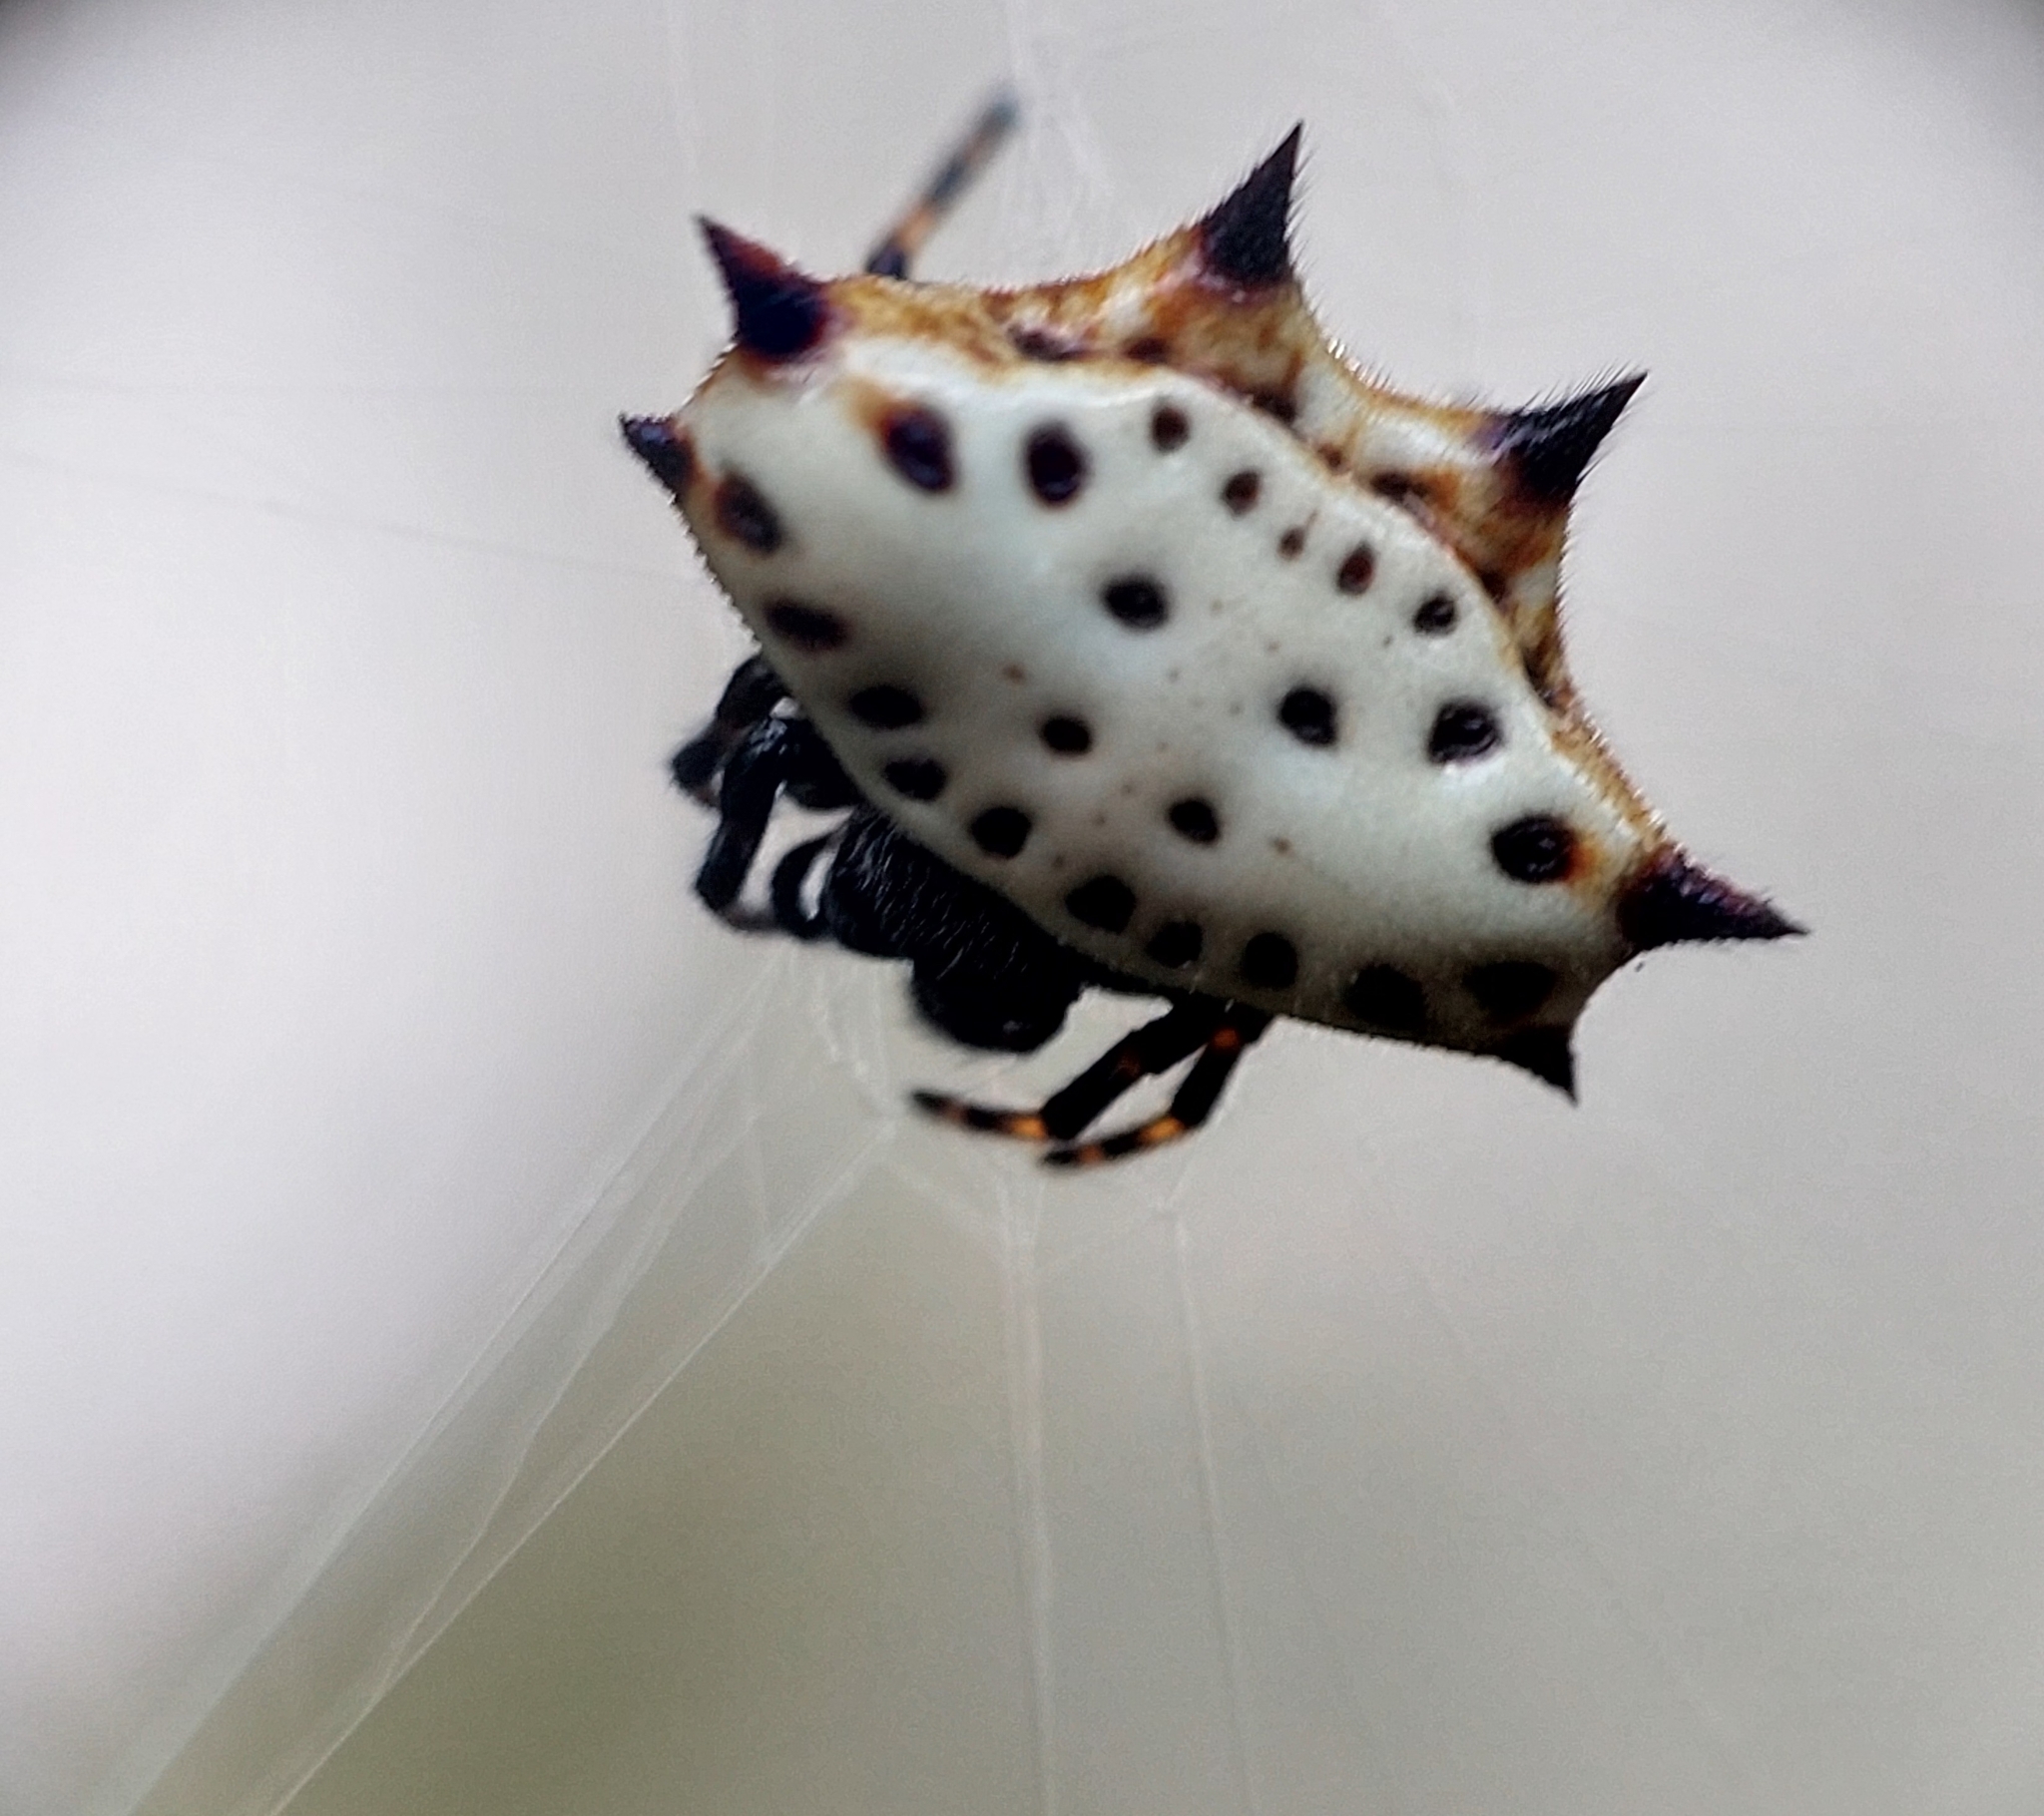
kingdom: Animalia
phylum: Arthropoda
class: Arachnida
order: Araneae
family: Araneidae
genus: Gasteracantha
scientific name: Gasteracantha cancriformis
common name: Orb weavers
